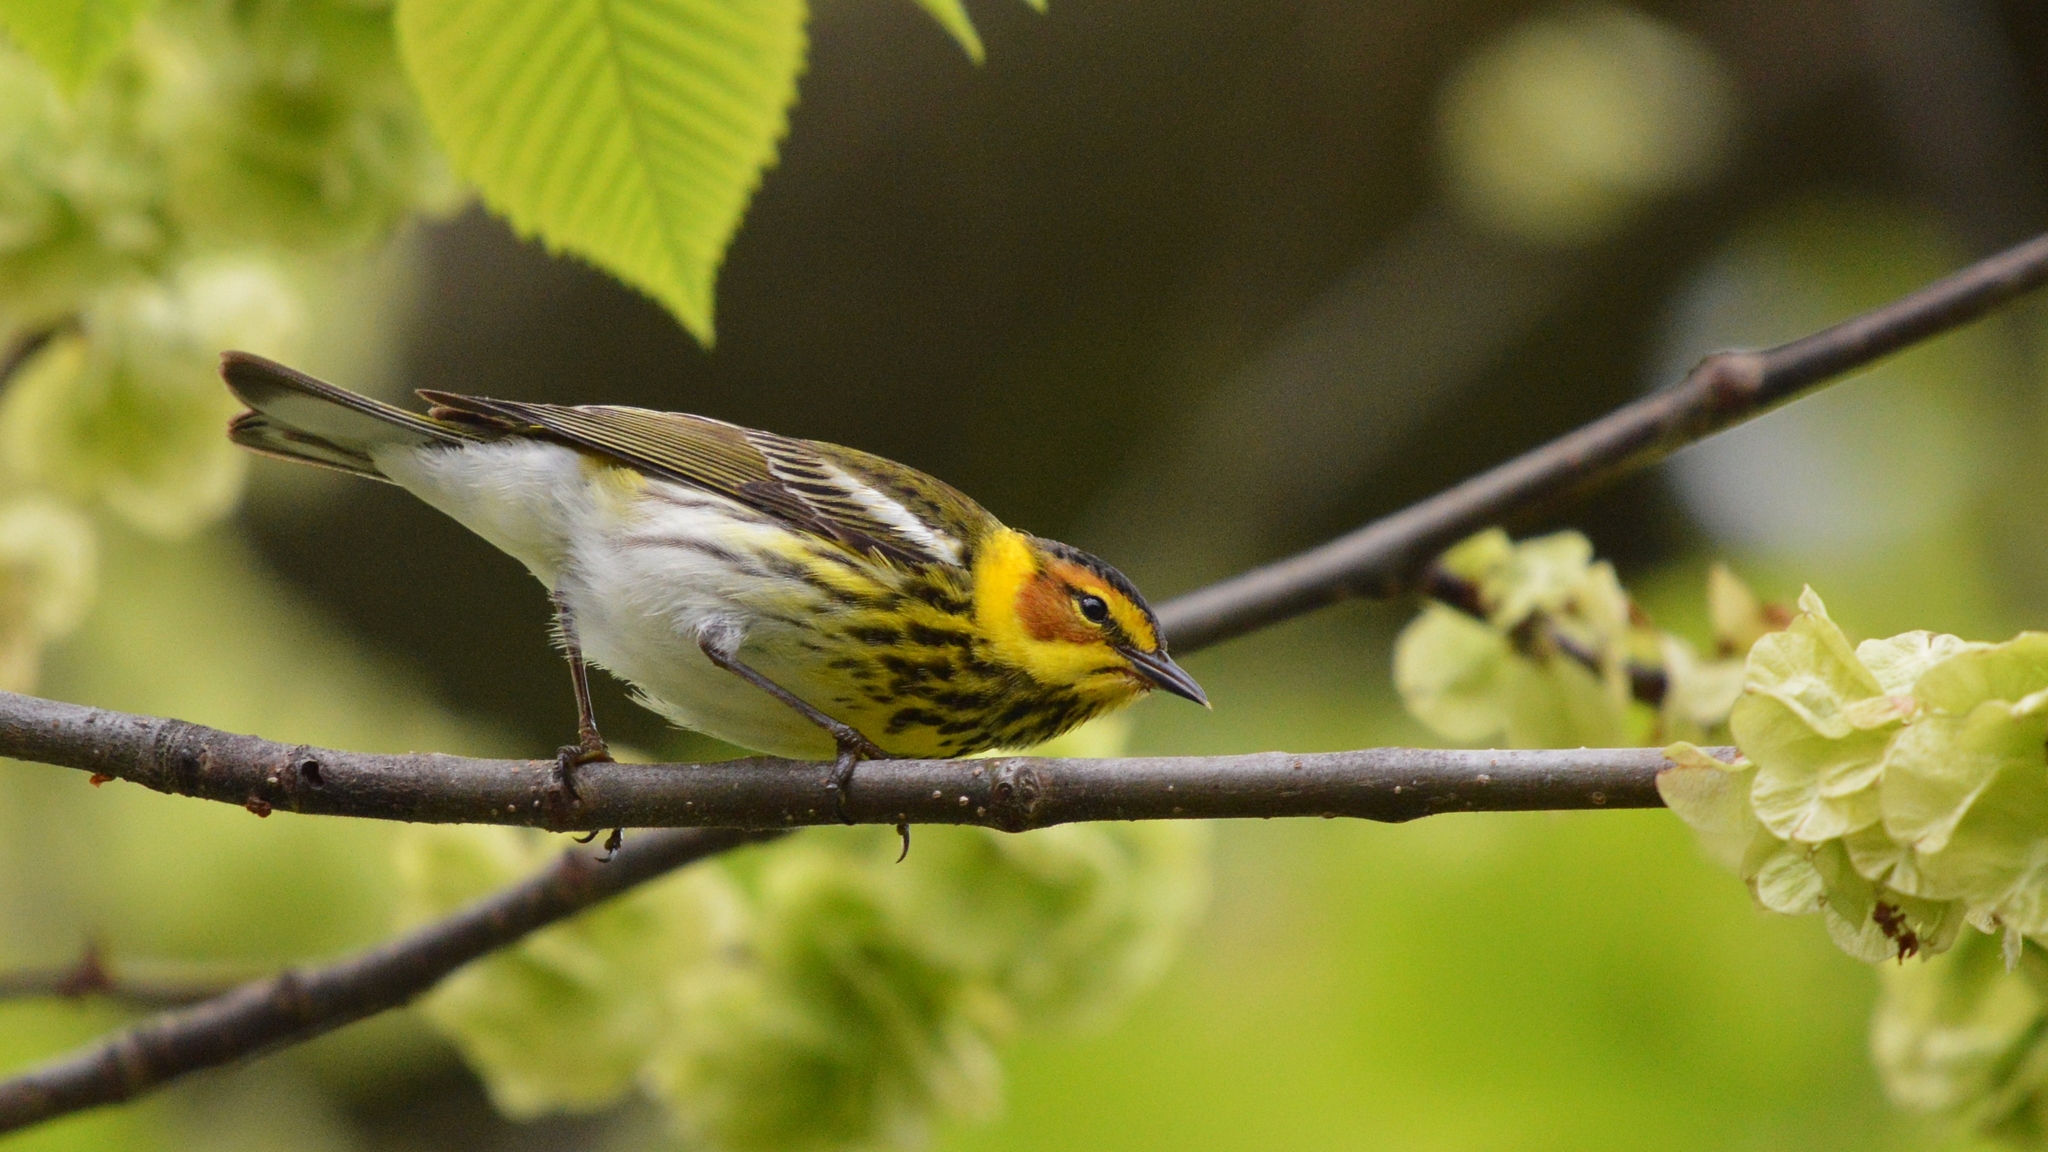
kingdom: Animalia
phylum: Chordata
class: Aves
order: Passeriformes
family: Parulidae
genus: Setophaga
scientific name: Setophaga tigrina
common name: Cape may warbler
